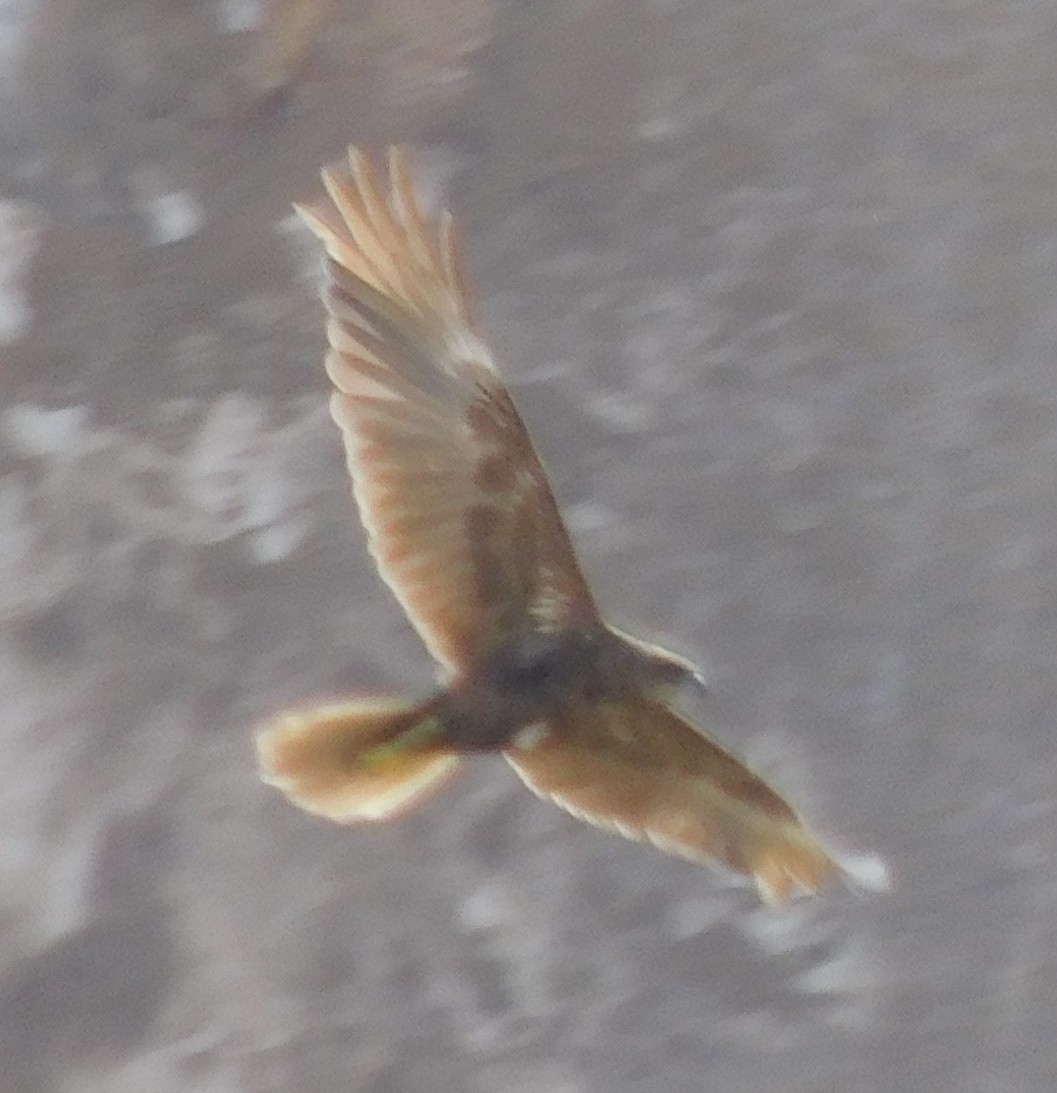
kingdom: Animalia
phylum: Chordata
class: Aves
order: Accipitriformes
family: Accipitridae
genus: Circus
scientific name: Circus aeruginosus
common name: Western marsh harrier
